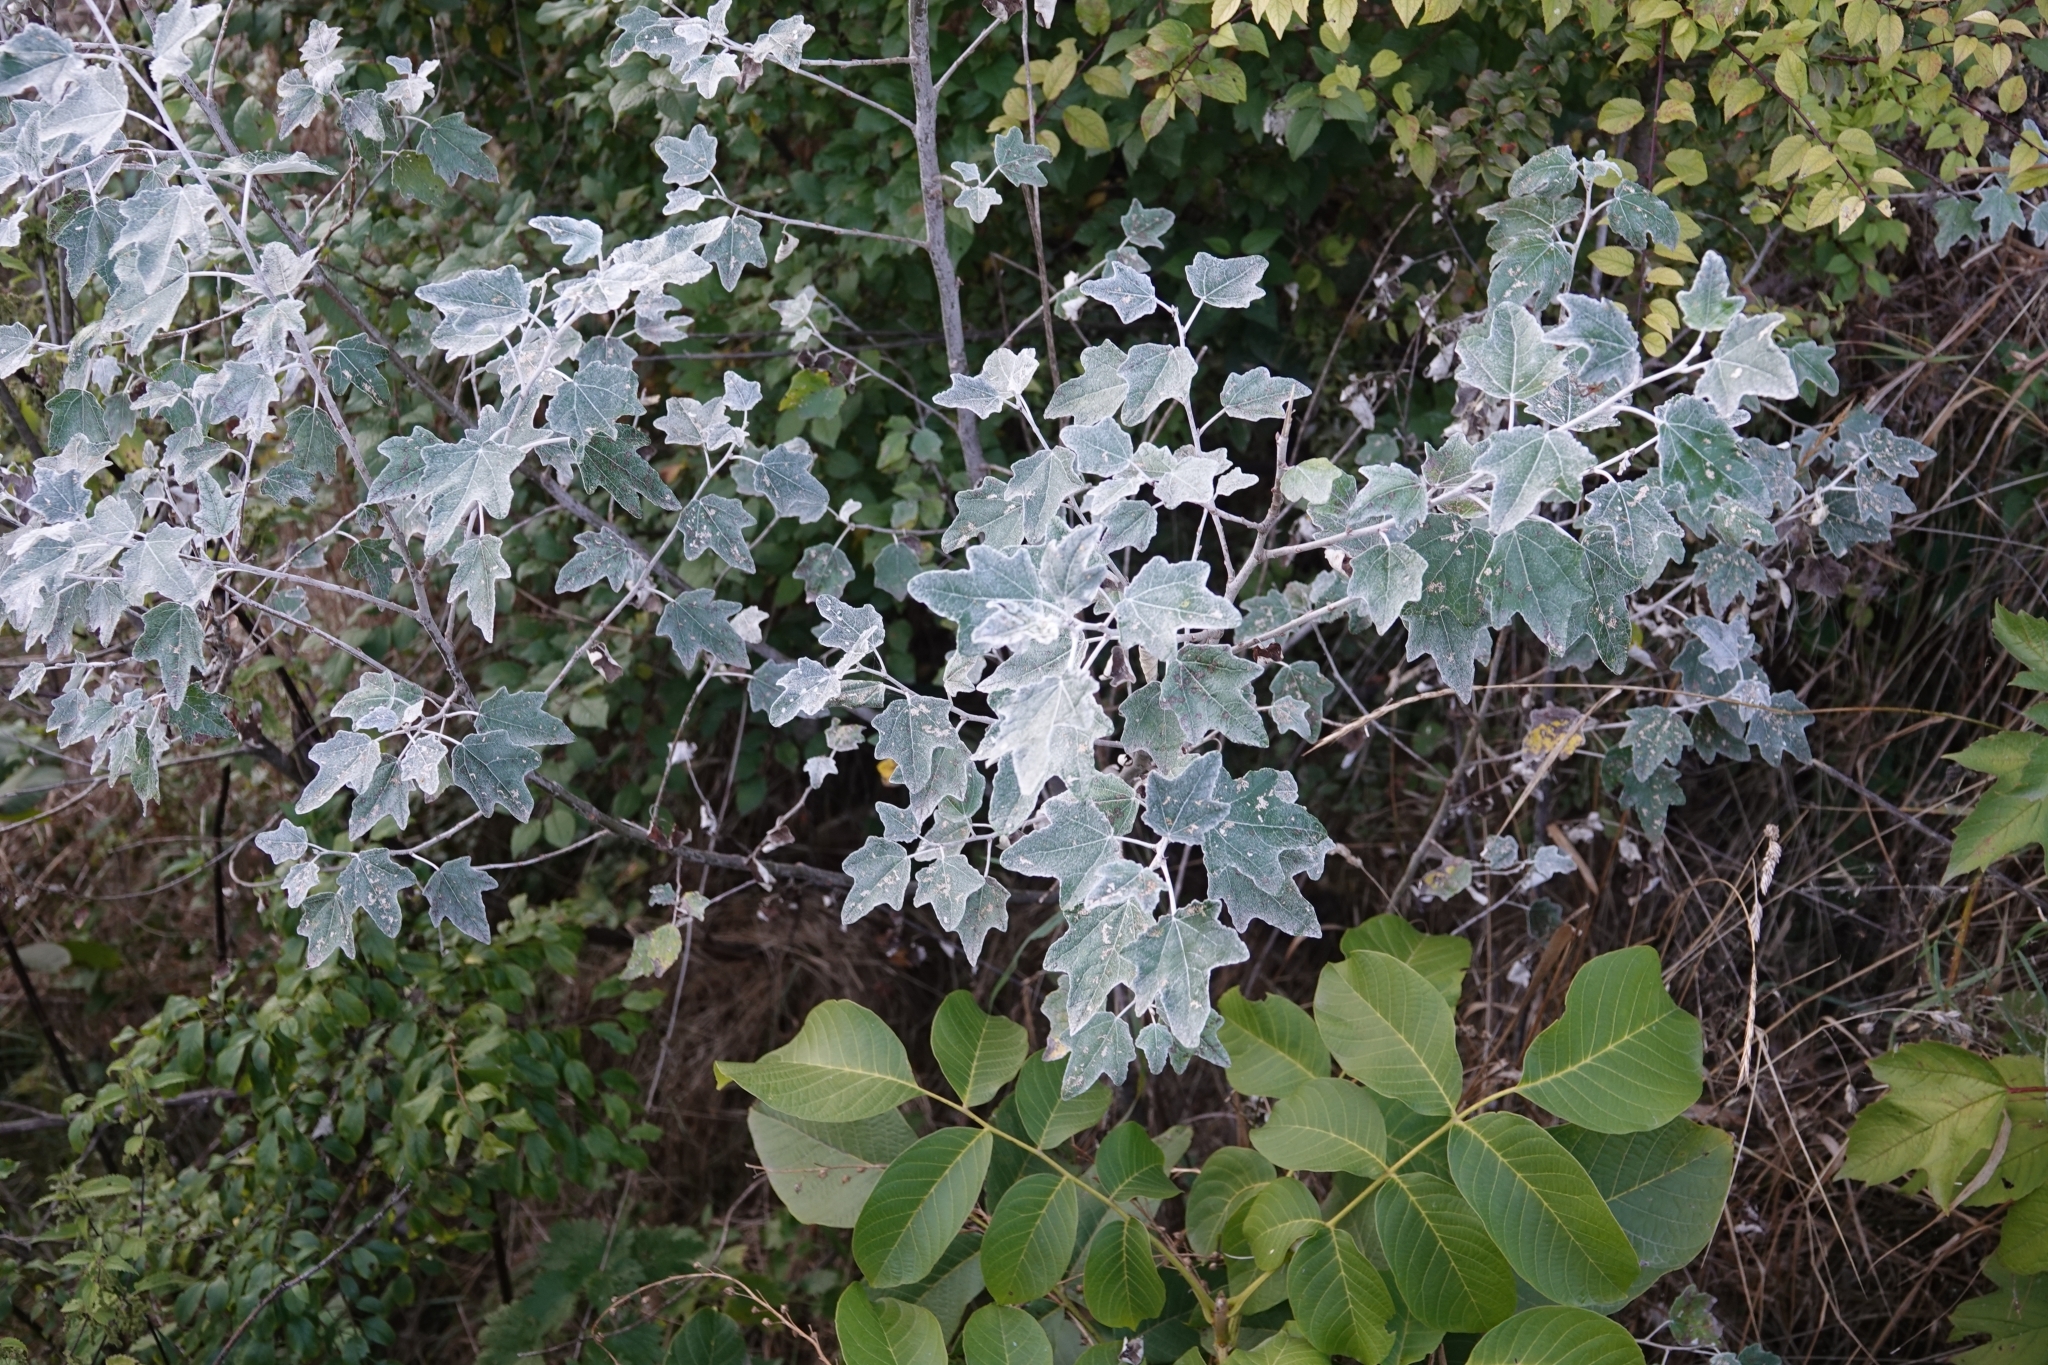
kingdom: Plantae
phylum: Tracheophyta
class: Magnoliopsida
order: Malpighiales
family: Salicaceae
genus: Populus
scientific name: Populus alba
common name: White poplar
